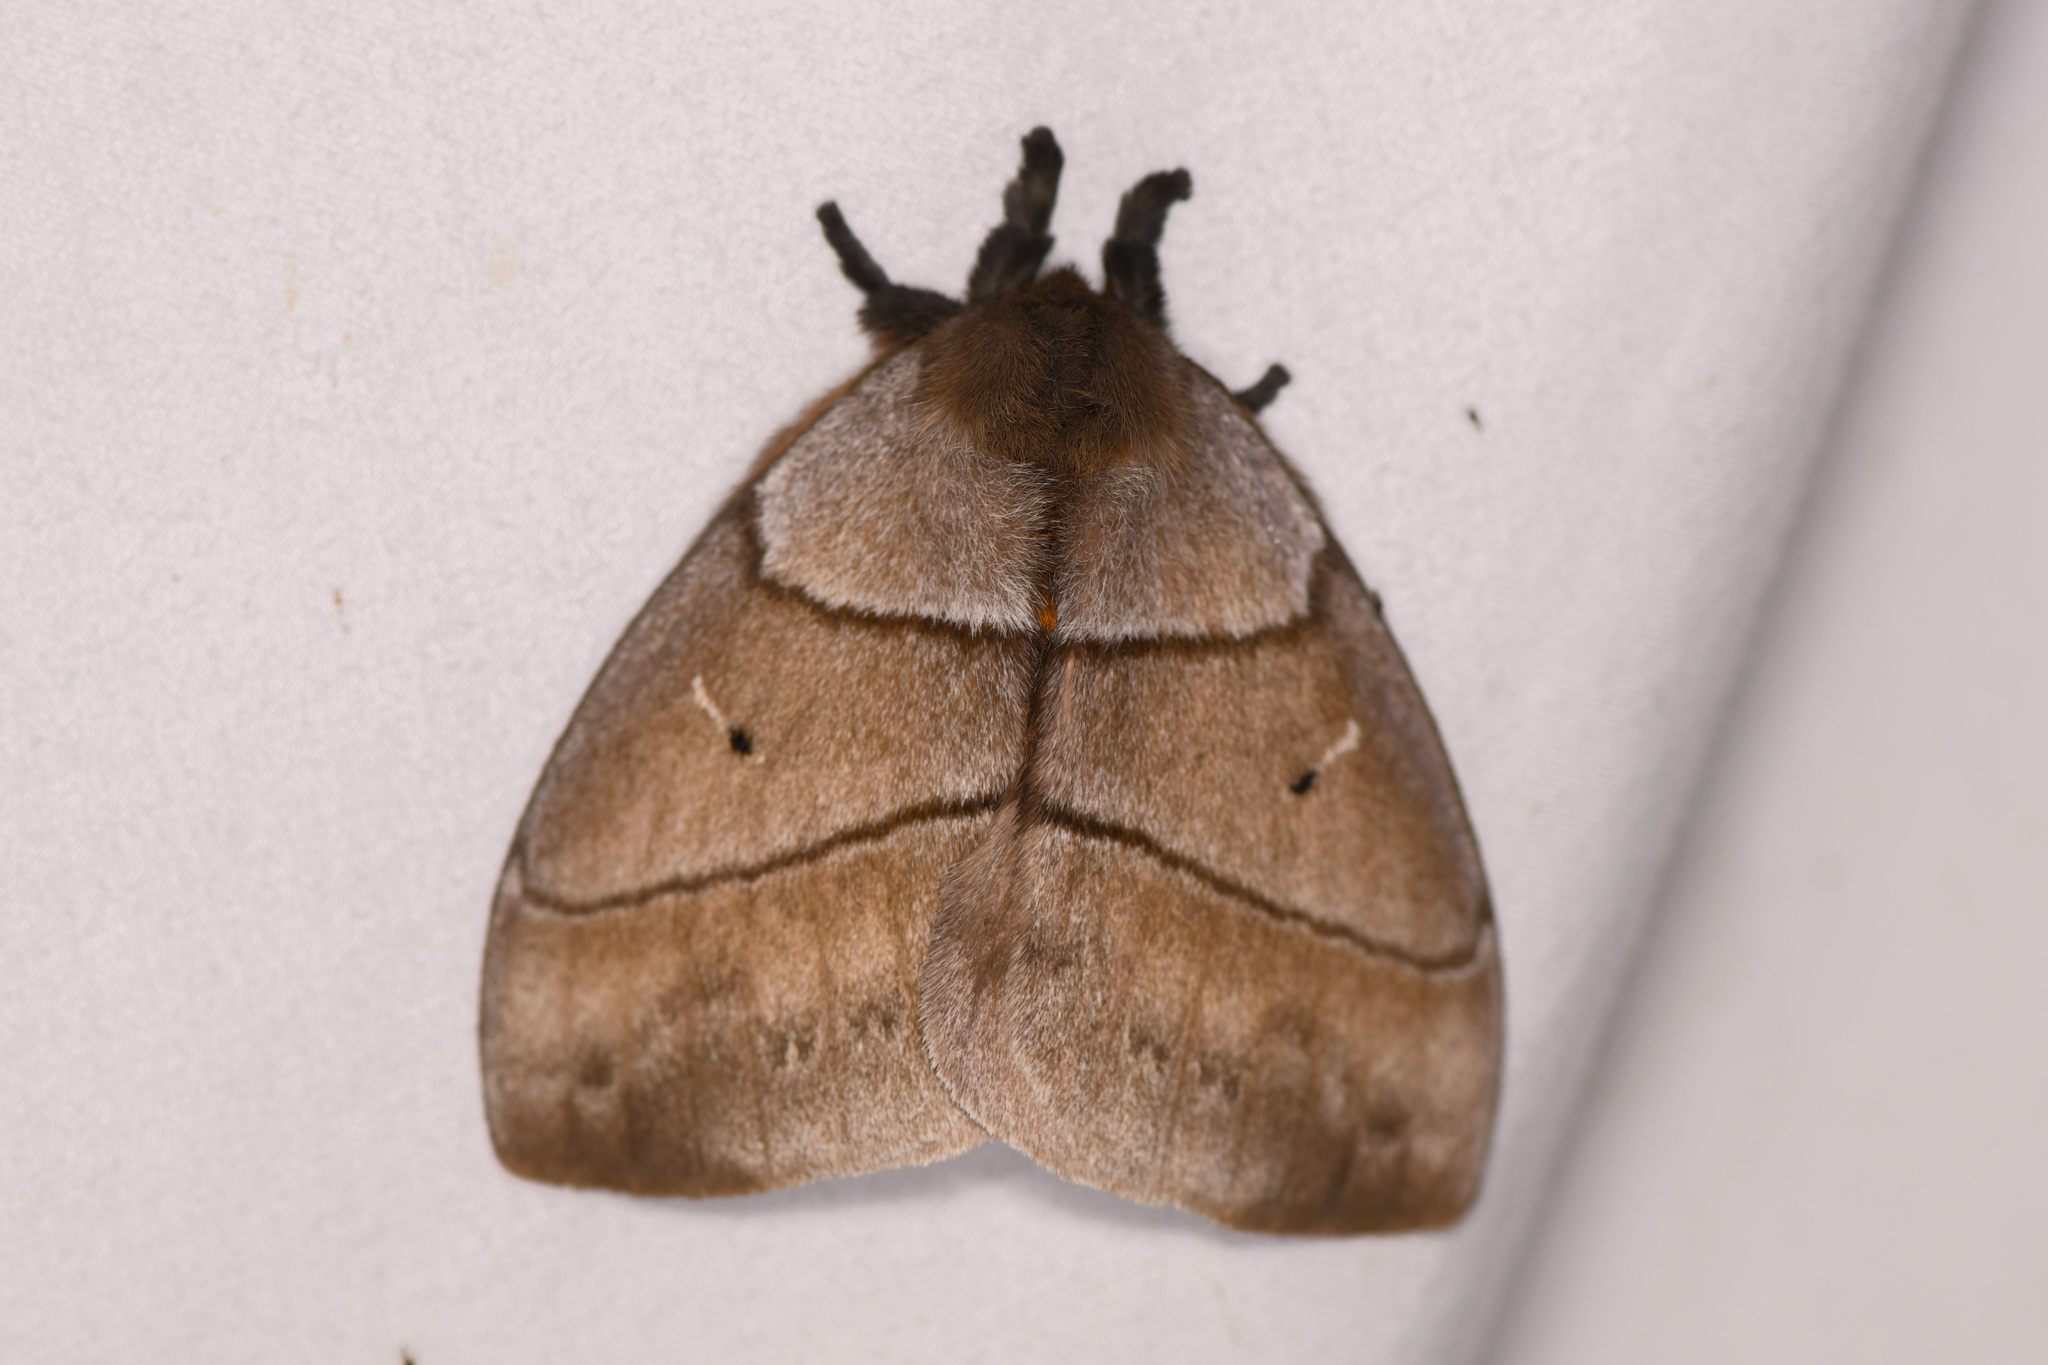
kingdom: Animalia
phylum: Arthropoda
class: Insecta
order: Lepidoptera
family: Saturniidae
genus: Periphoba
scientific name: Periphoba arcaei
